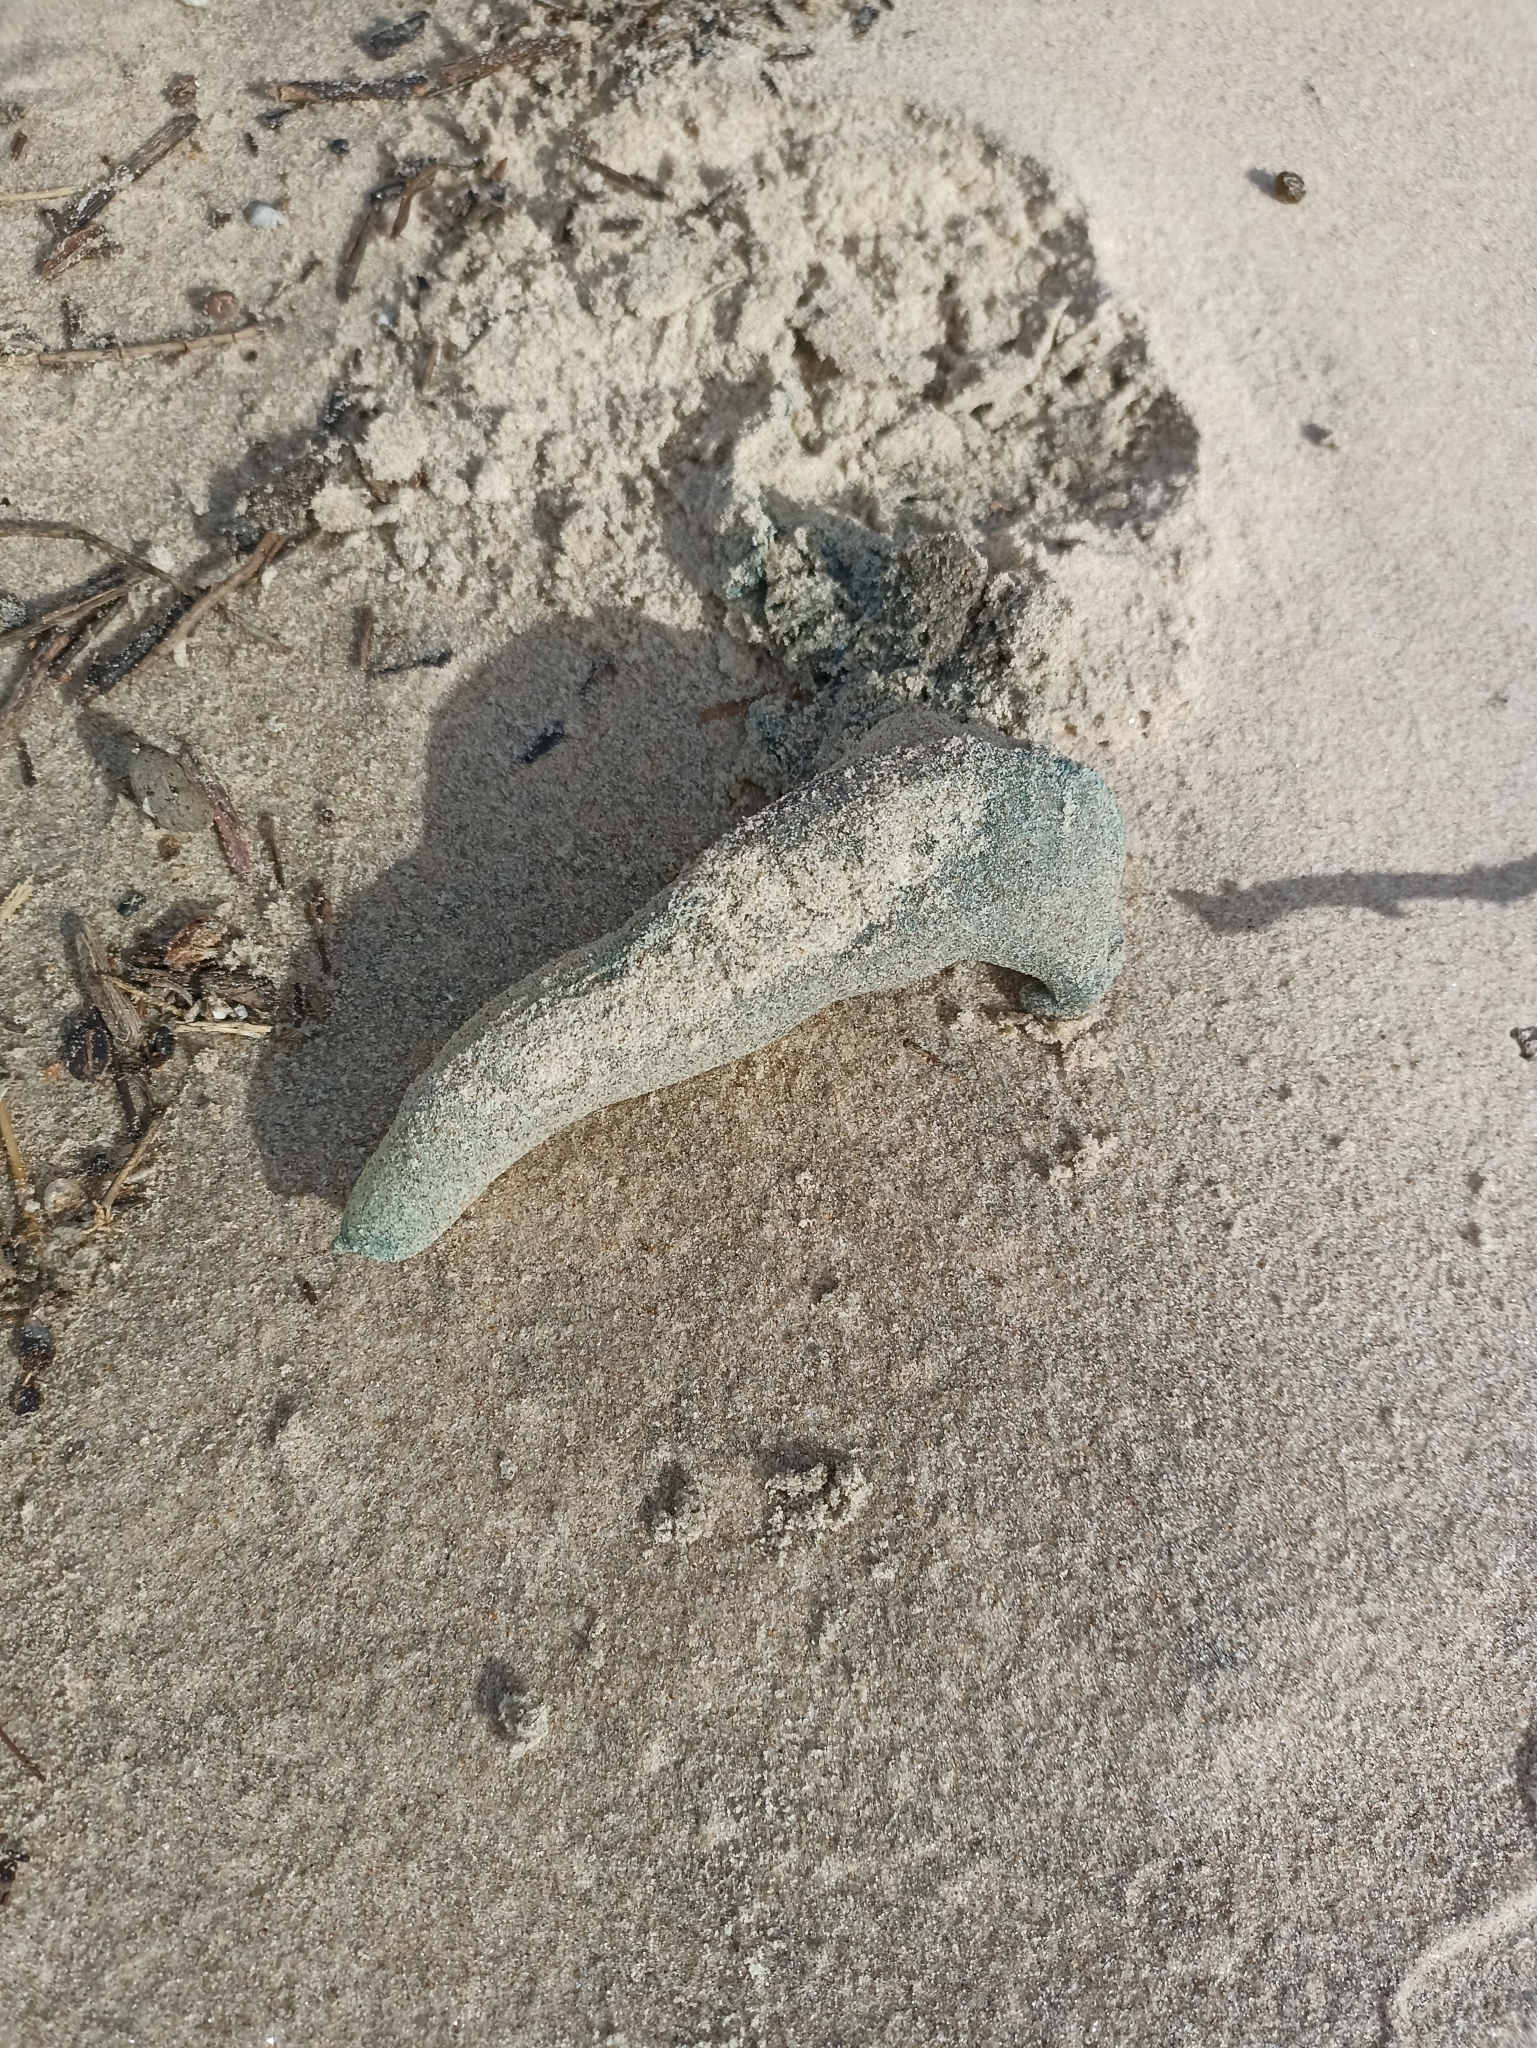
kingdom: Animalia
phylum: Cnidaria
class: Hydrozoa
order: Siphonophorae
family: Physaliidae
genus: Physalia
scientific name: Physalia physalis
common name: Portuguese man-of-war
